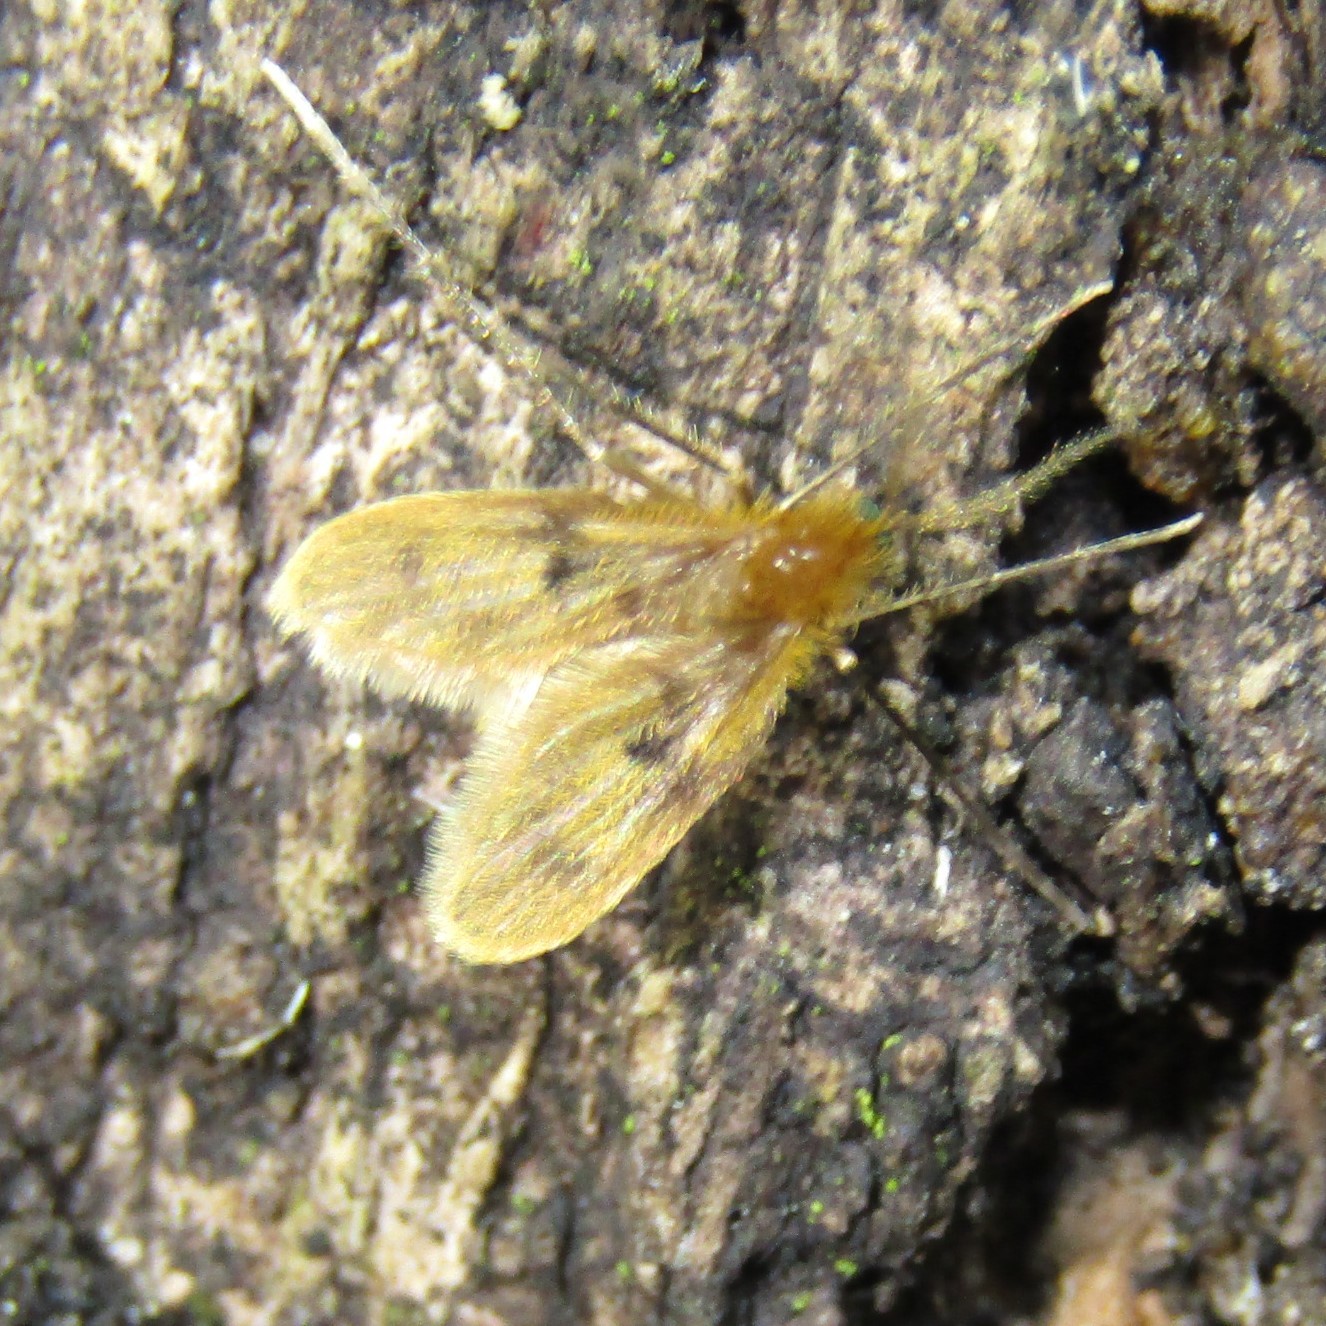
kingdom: Animalia
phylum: Arthropoda
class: Insecta
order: Diptera
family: Psychodidae
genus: Notofairchildia
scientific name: Notofairchildia zelandiae
